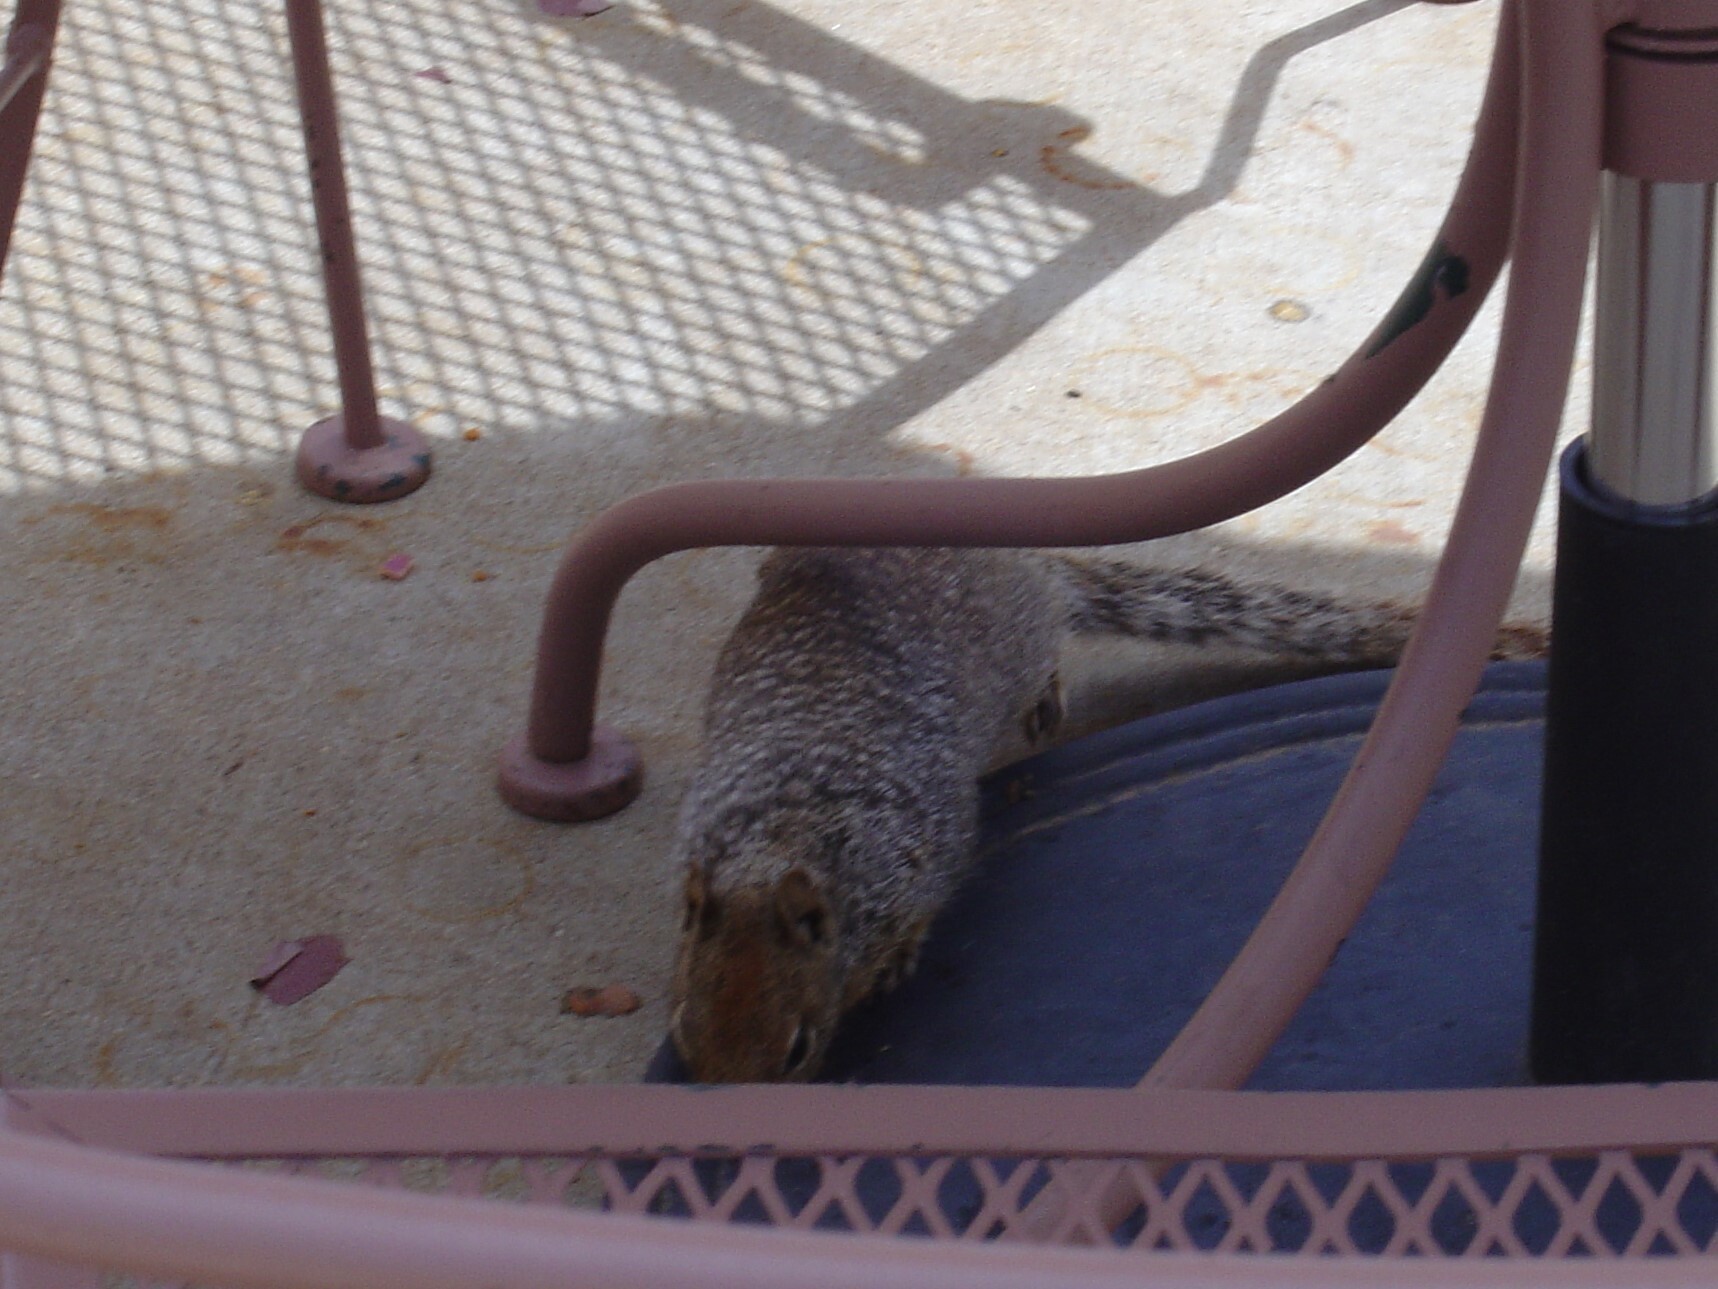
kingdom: Animalia
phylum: Chordata
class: Mammalia
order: Rodentia
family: Sciuridae
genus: Otospermophilus
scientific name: Otospermophilus variegatus
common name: Rock squirrel
